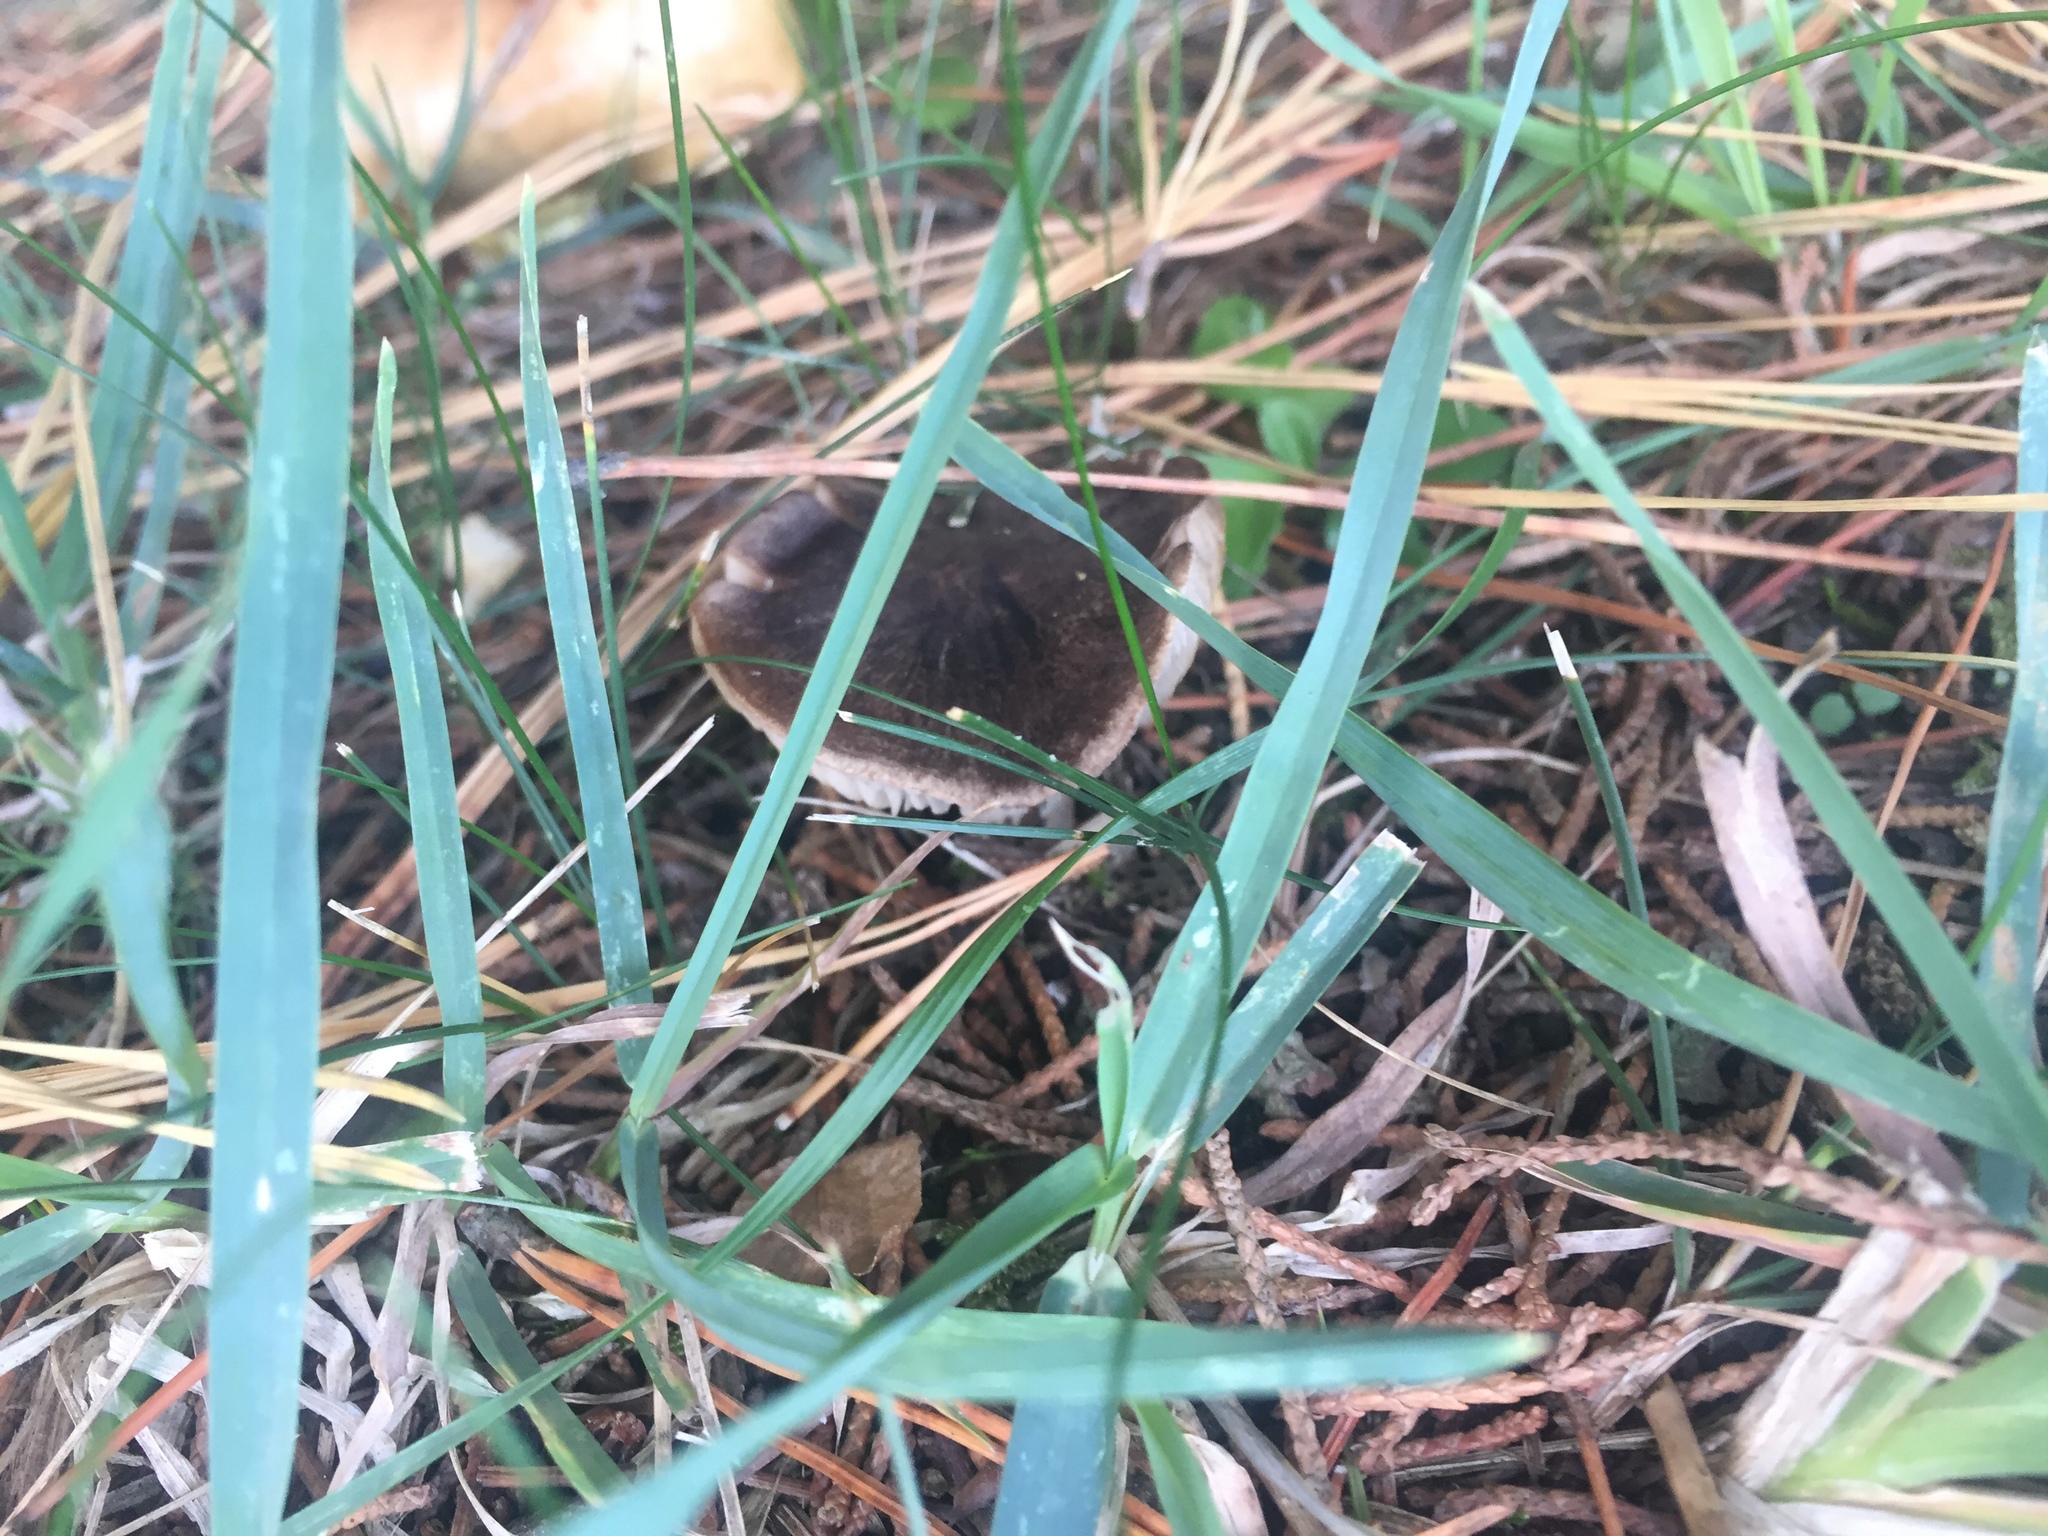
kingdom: Fungi
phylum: Basidiomycota
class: Agaricomycetes
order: Agaricales
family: Tricholomataceae
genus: Tricholoma
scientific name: Tricholoma terreum
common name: Grey knight
